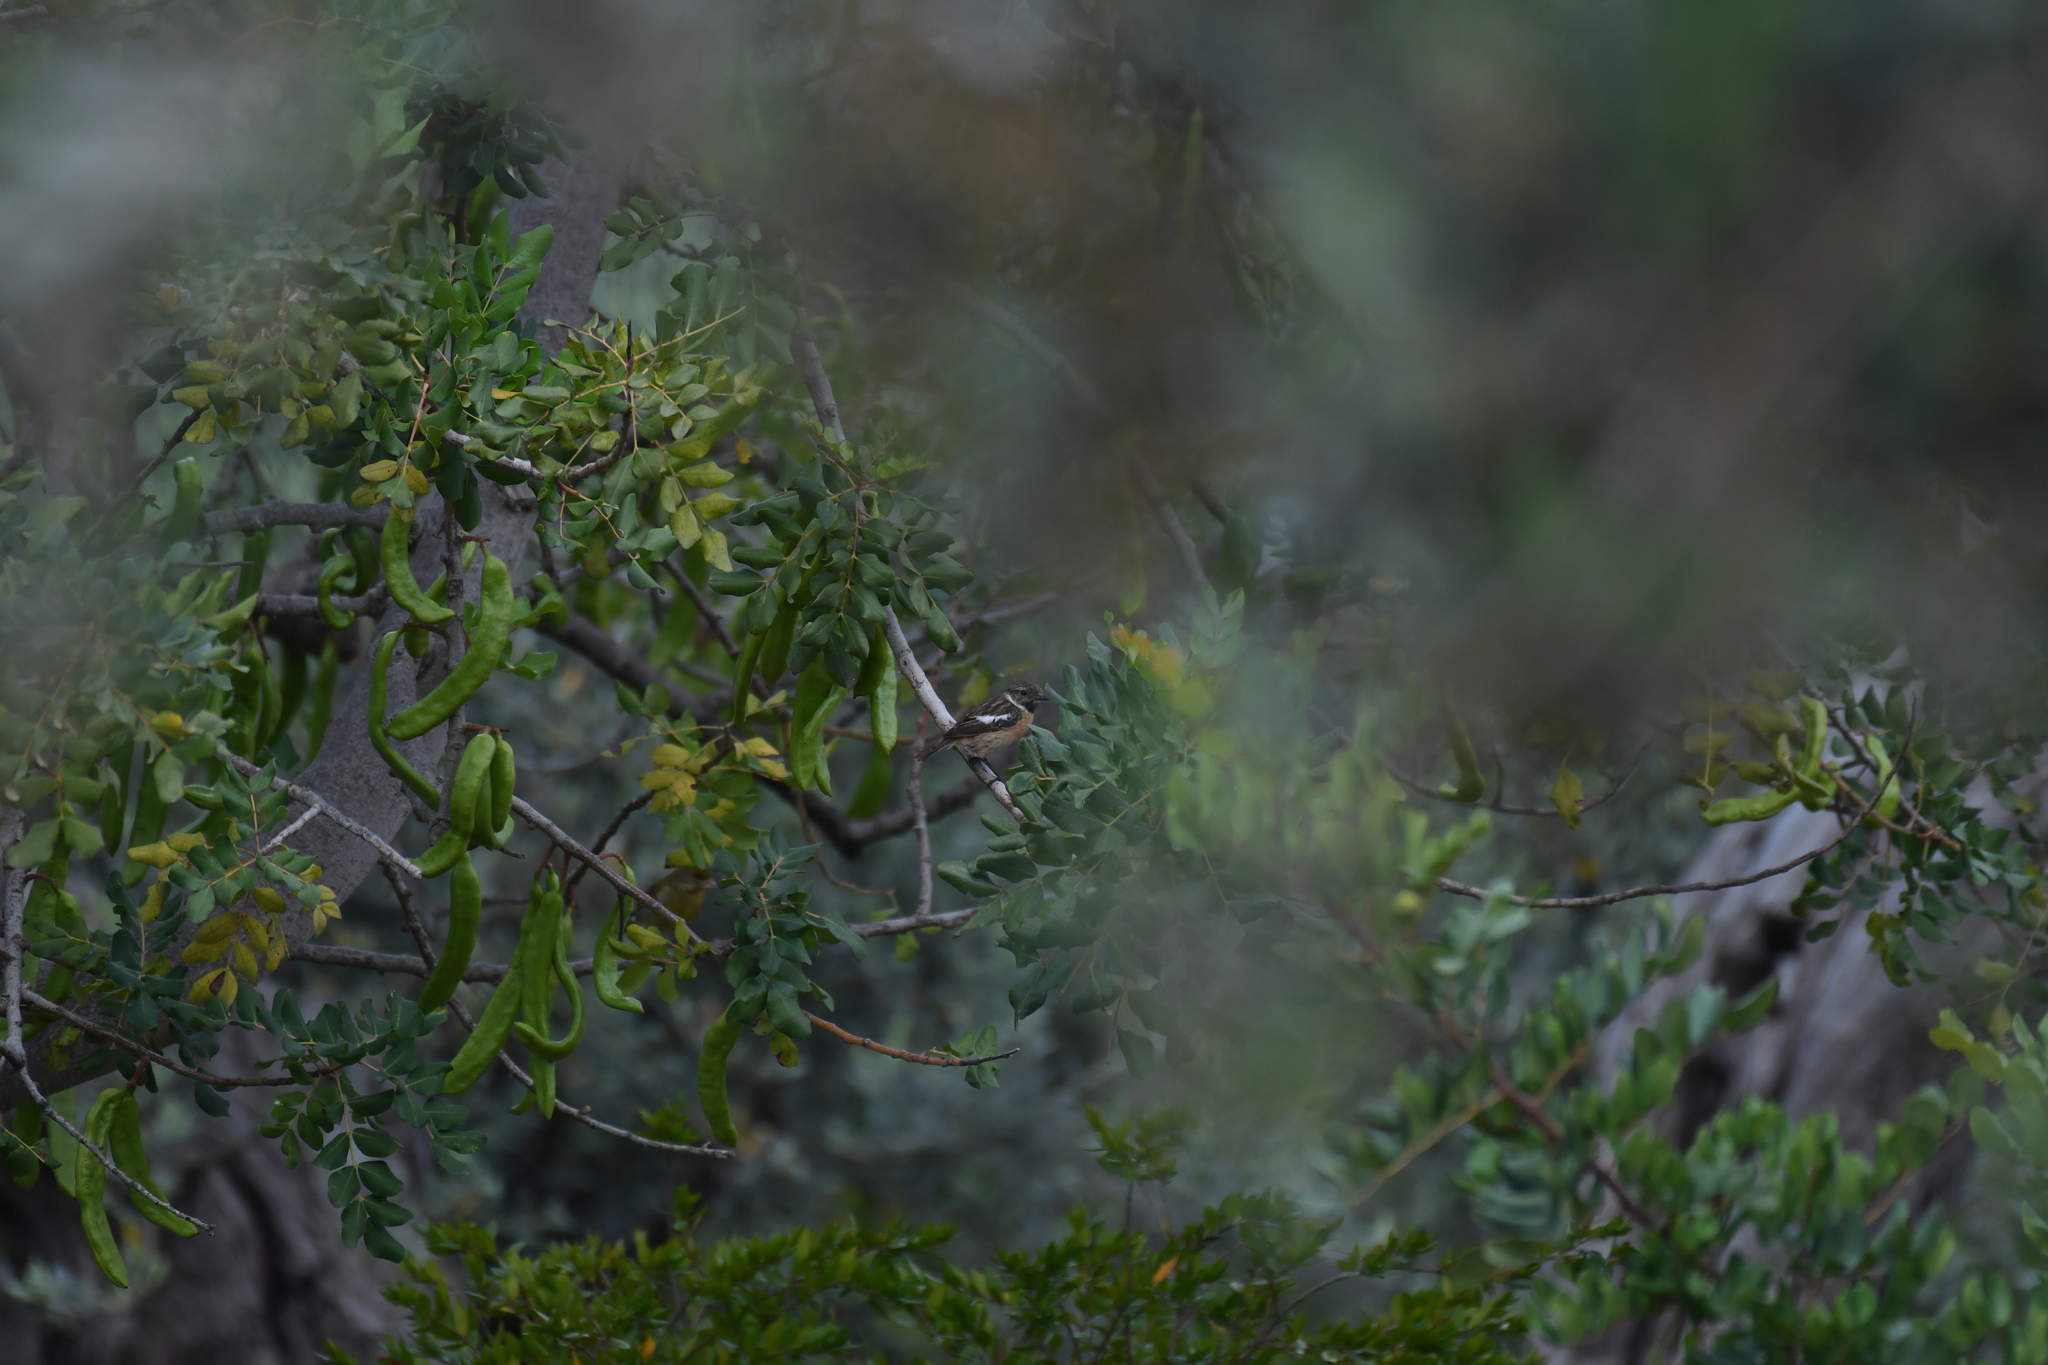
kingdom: Animalia
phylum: Chordata
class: Aves
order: Passeriformes
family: Muscicapidae
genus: Saxicola
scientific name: Saxicola rubicola
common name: European stonechat
